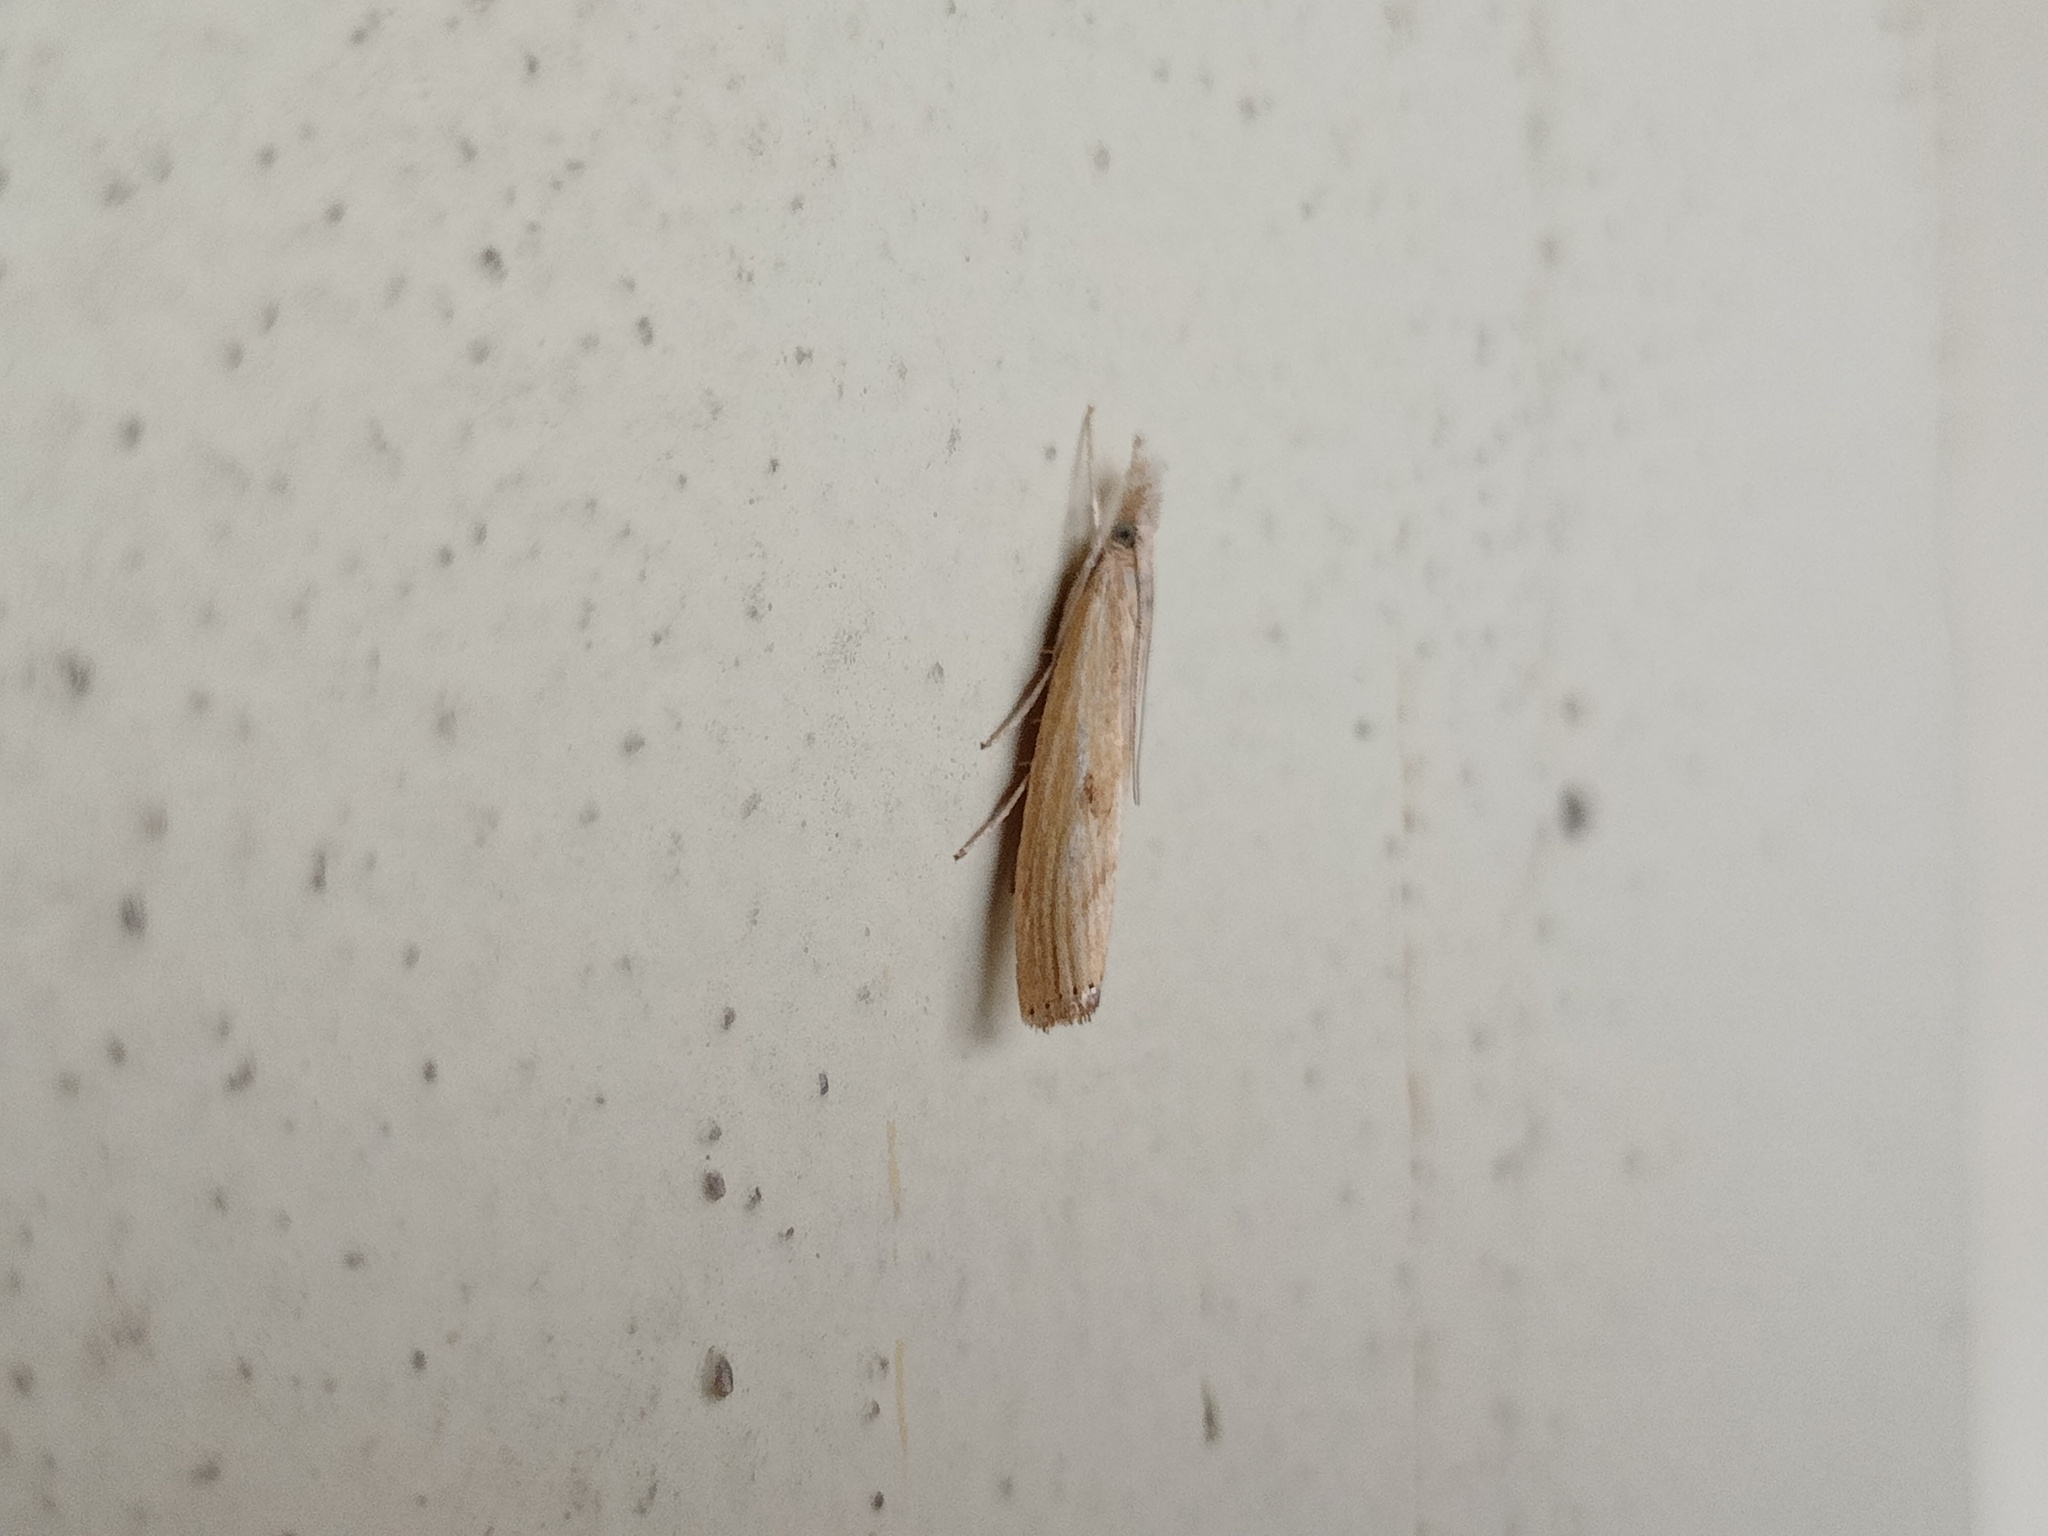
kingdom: Animalia
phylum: Arthropoda
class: Insecta
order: Lepidoptera
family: Crambidae
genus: Agriphila
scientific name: Agriphila inquinatella
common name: Barred grass-veneer
